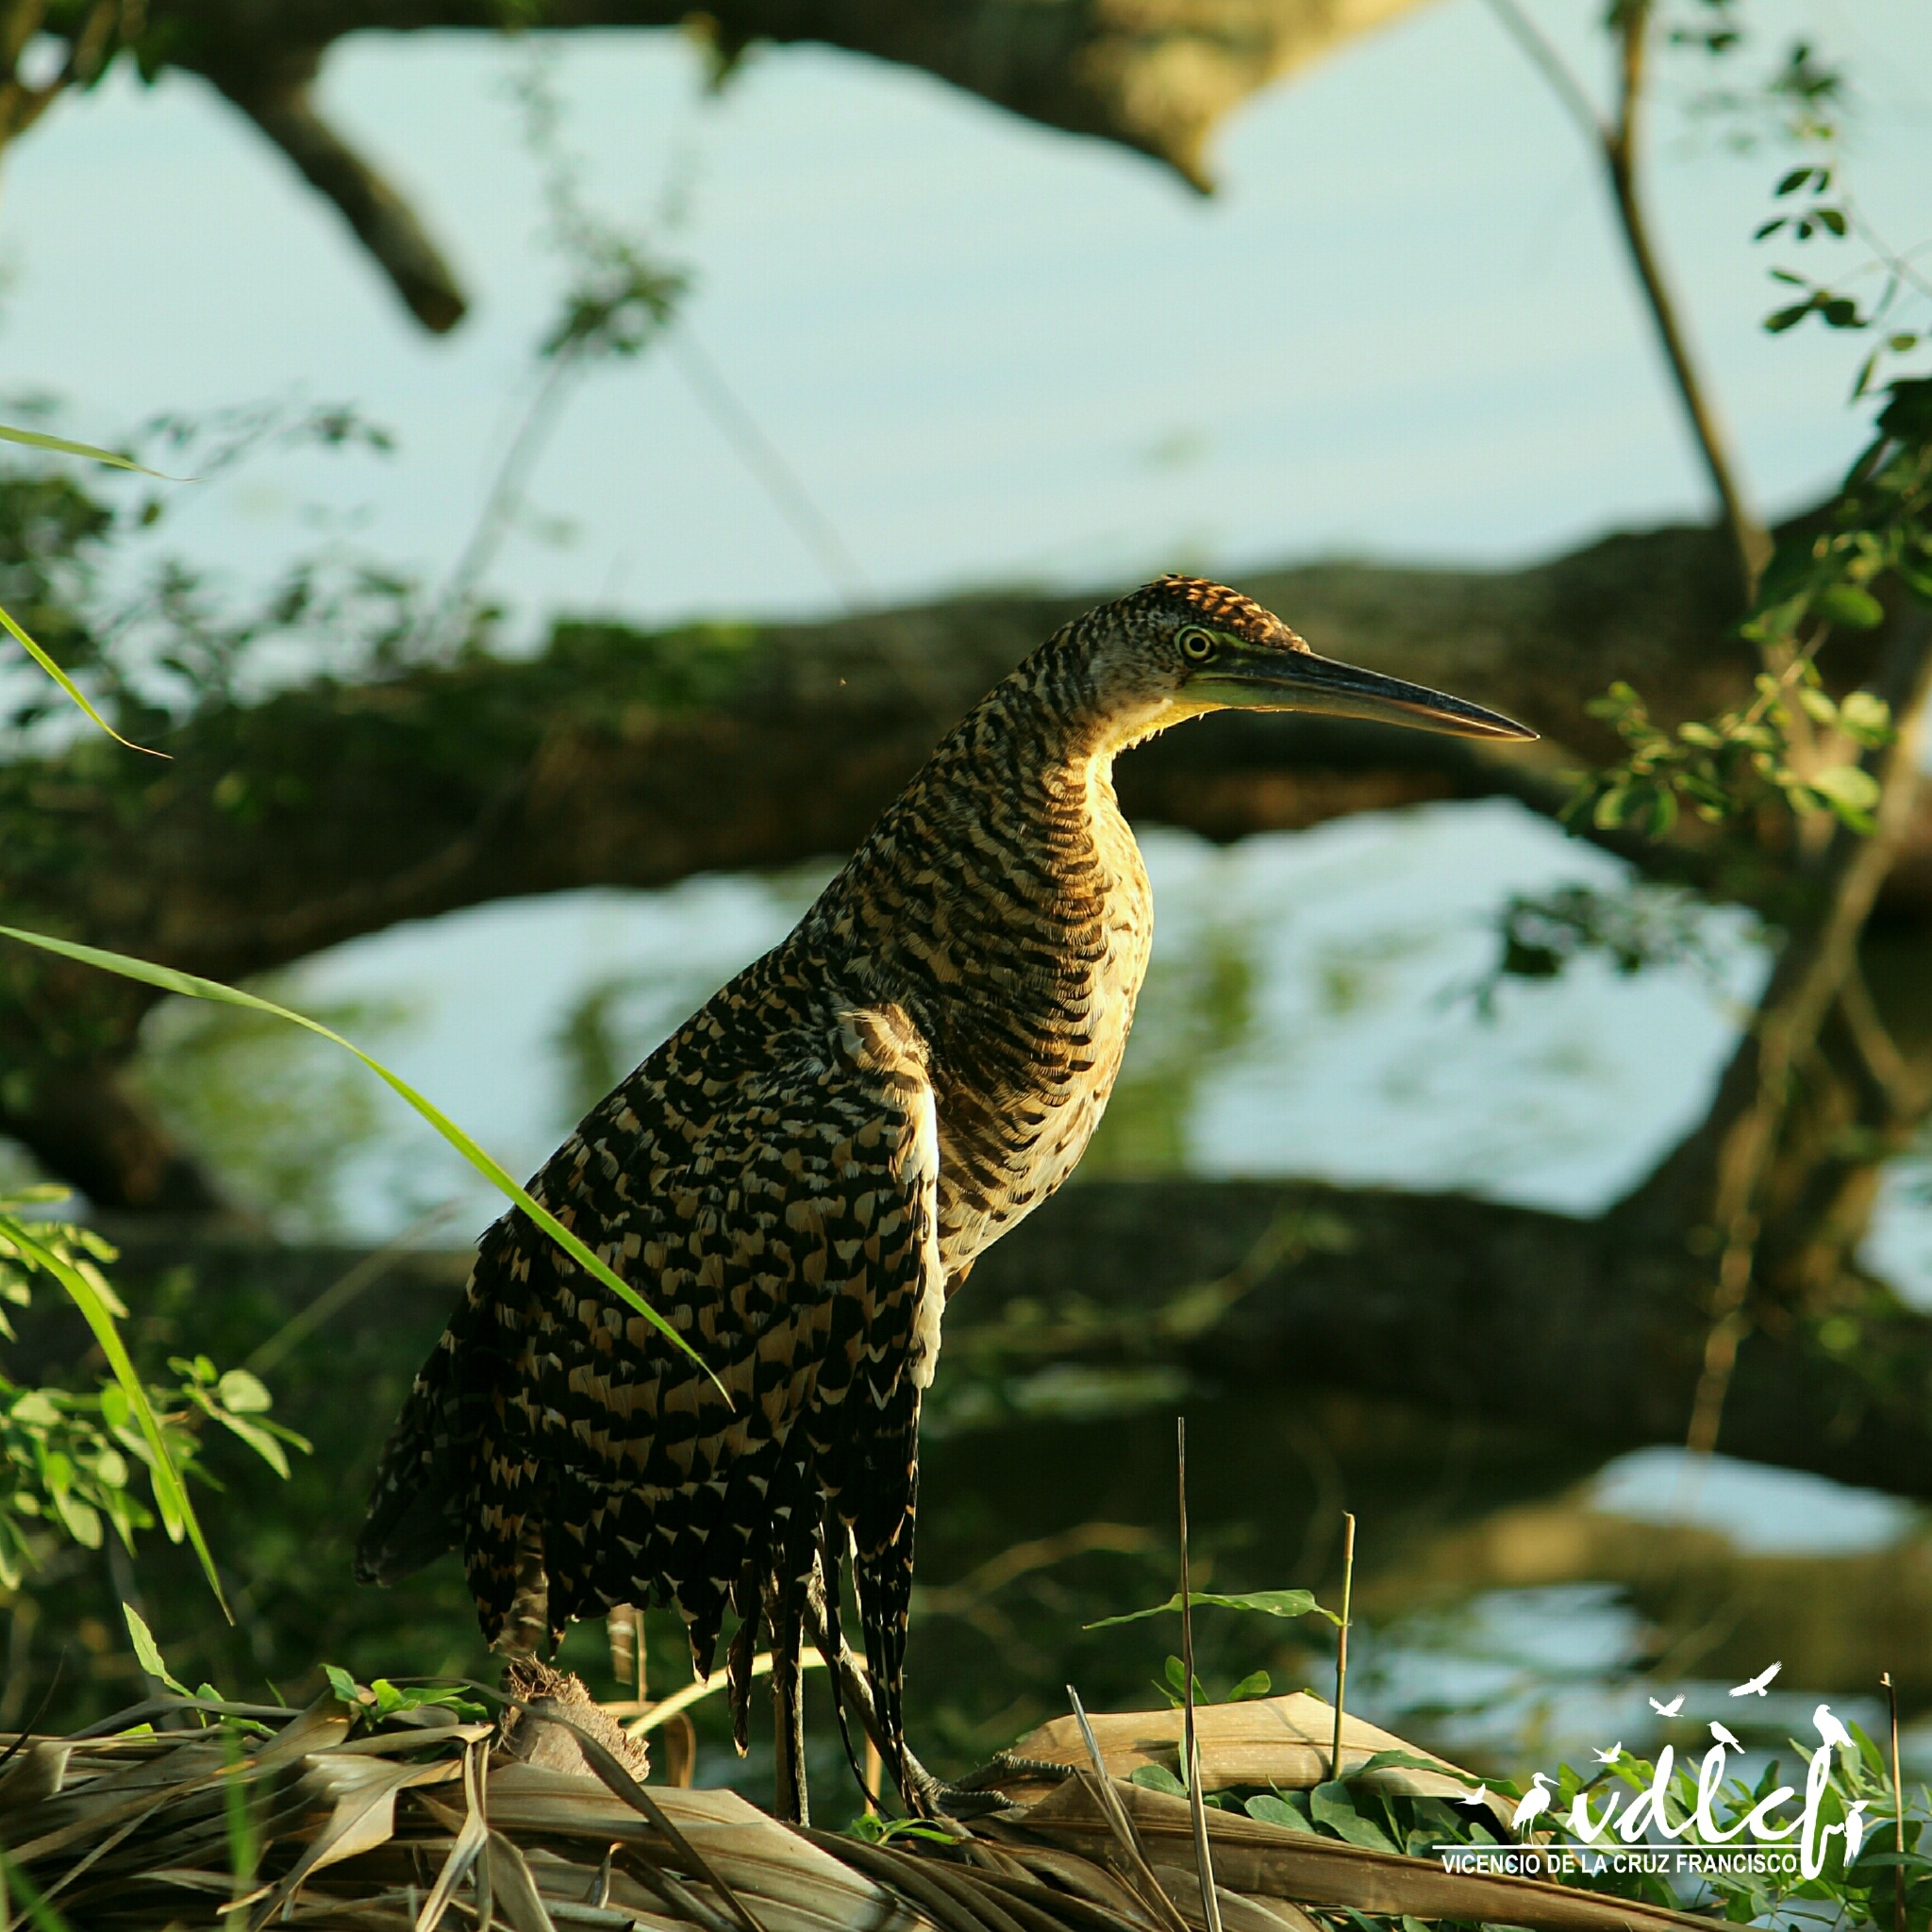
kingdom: Animalia
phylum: Chordata
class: Aves
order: Pelecaniformes
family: Ardeidae
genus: Tigrisoma
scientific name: Tigrisoma mexicanum
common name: Bare-throated tiger-heron
